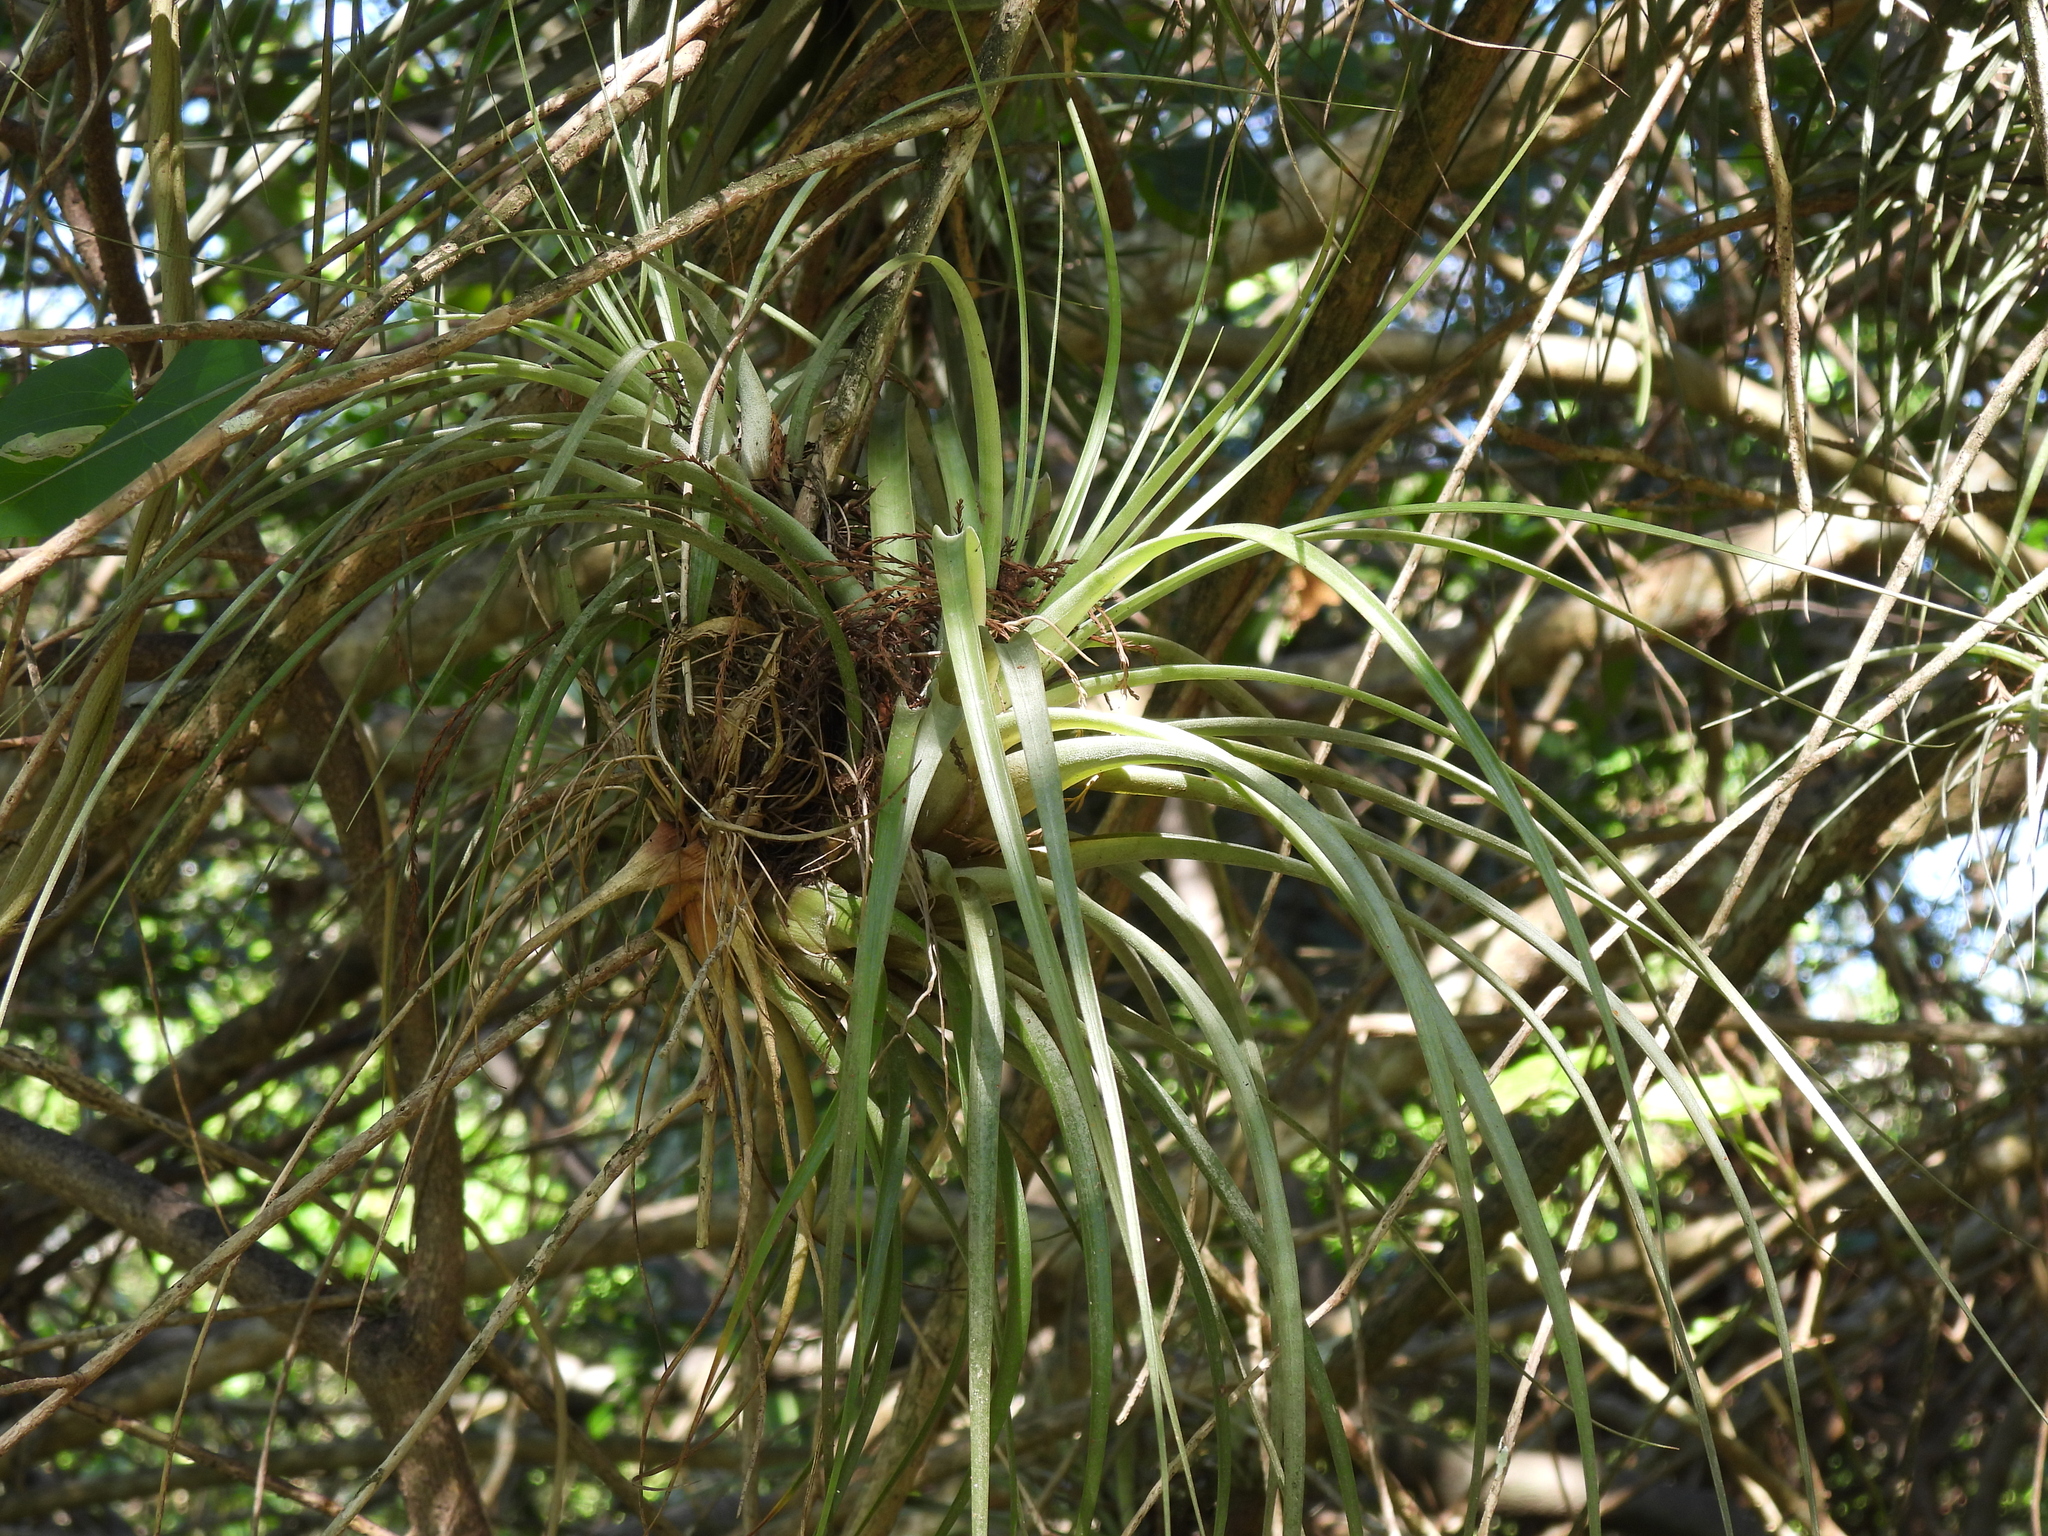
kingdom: Plantae
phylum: Tracheophyta
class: Liliopsida
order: Poales
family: Bromeliaceae
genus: Tillandsia
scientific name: Tillandsia fasciculata
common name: Giant airplant
